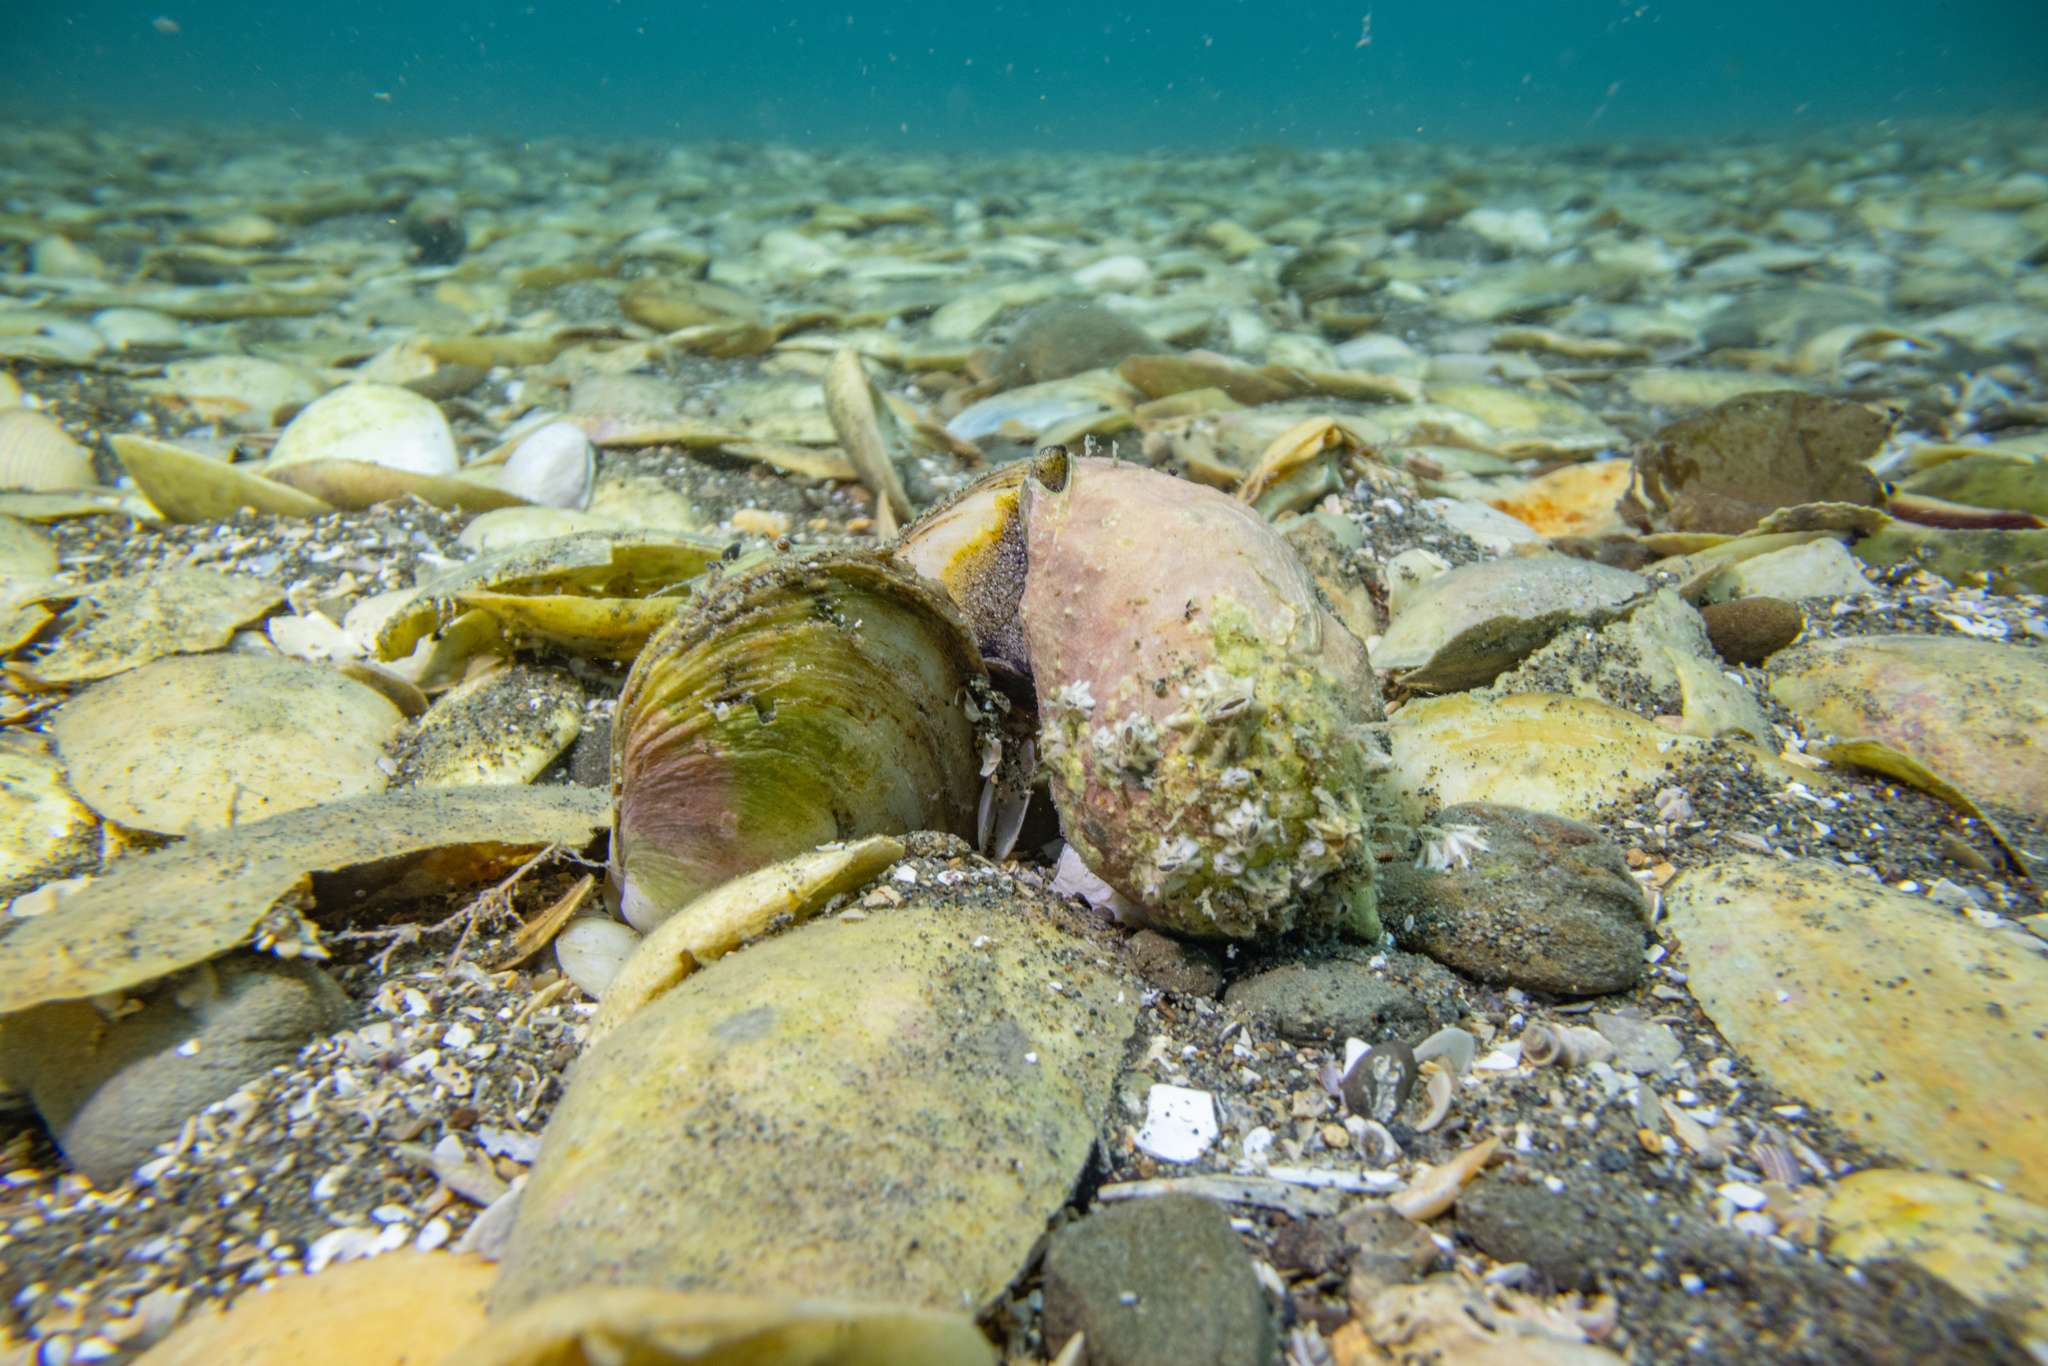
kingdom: Animalia
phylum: Mollusca
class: Bivalvia
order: Venerida
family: Mesodesmatidae
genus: Paphies
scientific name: Paphies australis
